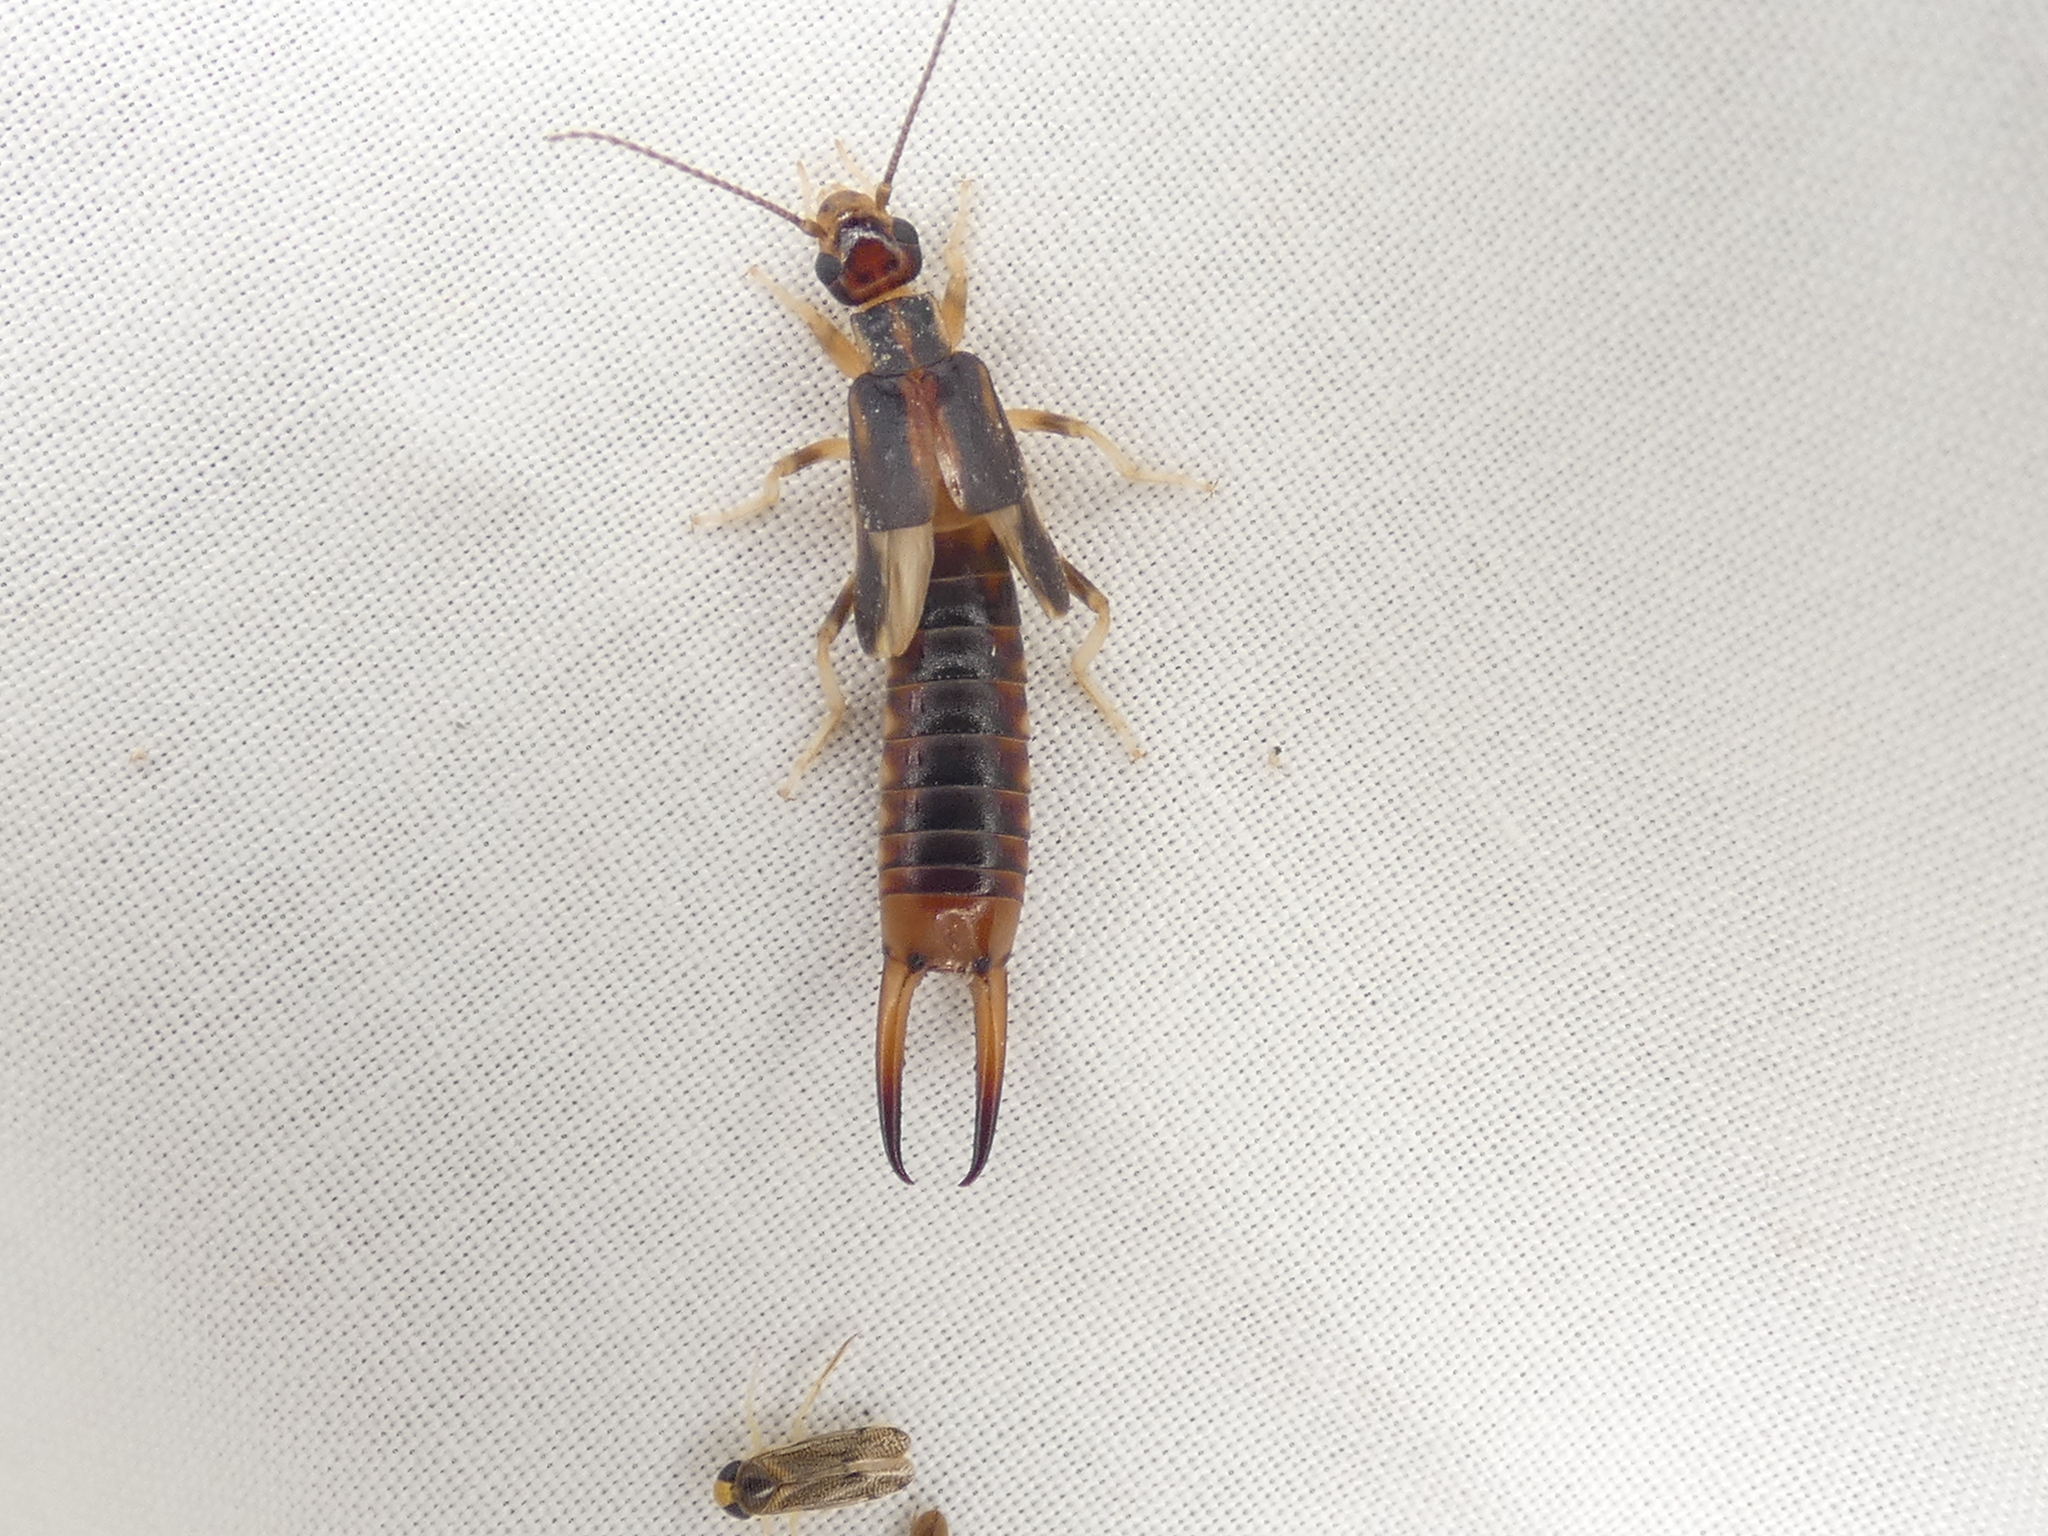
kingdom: Animalia
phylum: Arthropoda
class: Insecta
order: Dermaptera
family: Labiduridae
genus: Labidura
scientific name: Labidura riparia
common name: Striped earwig
